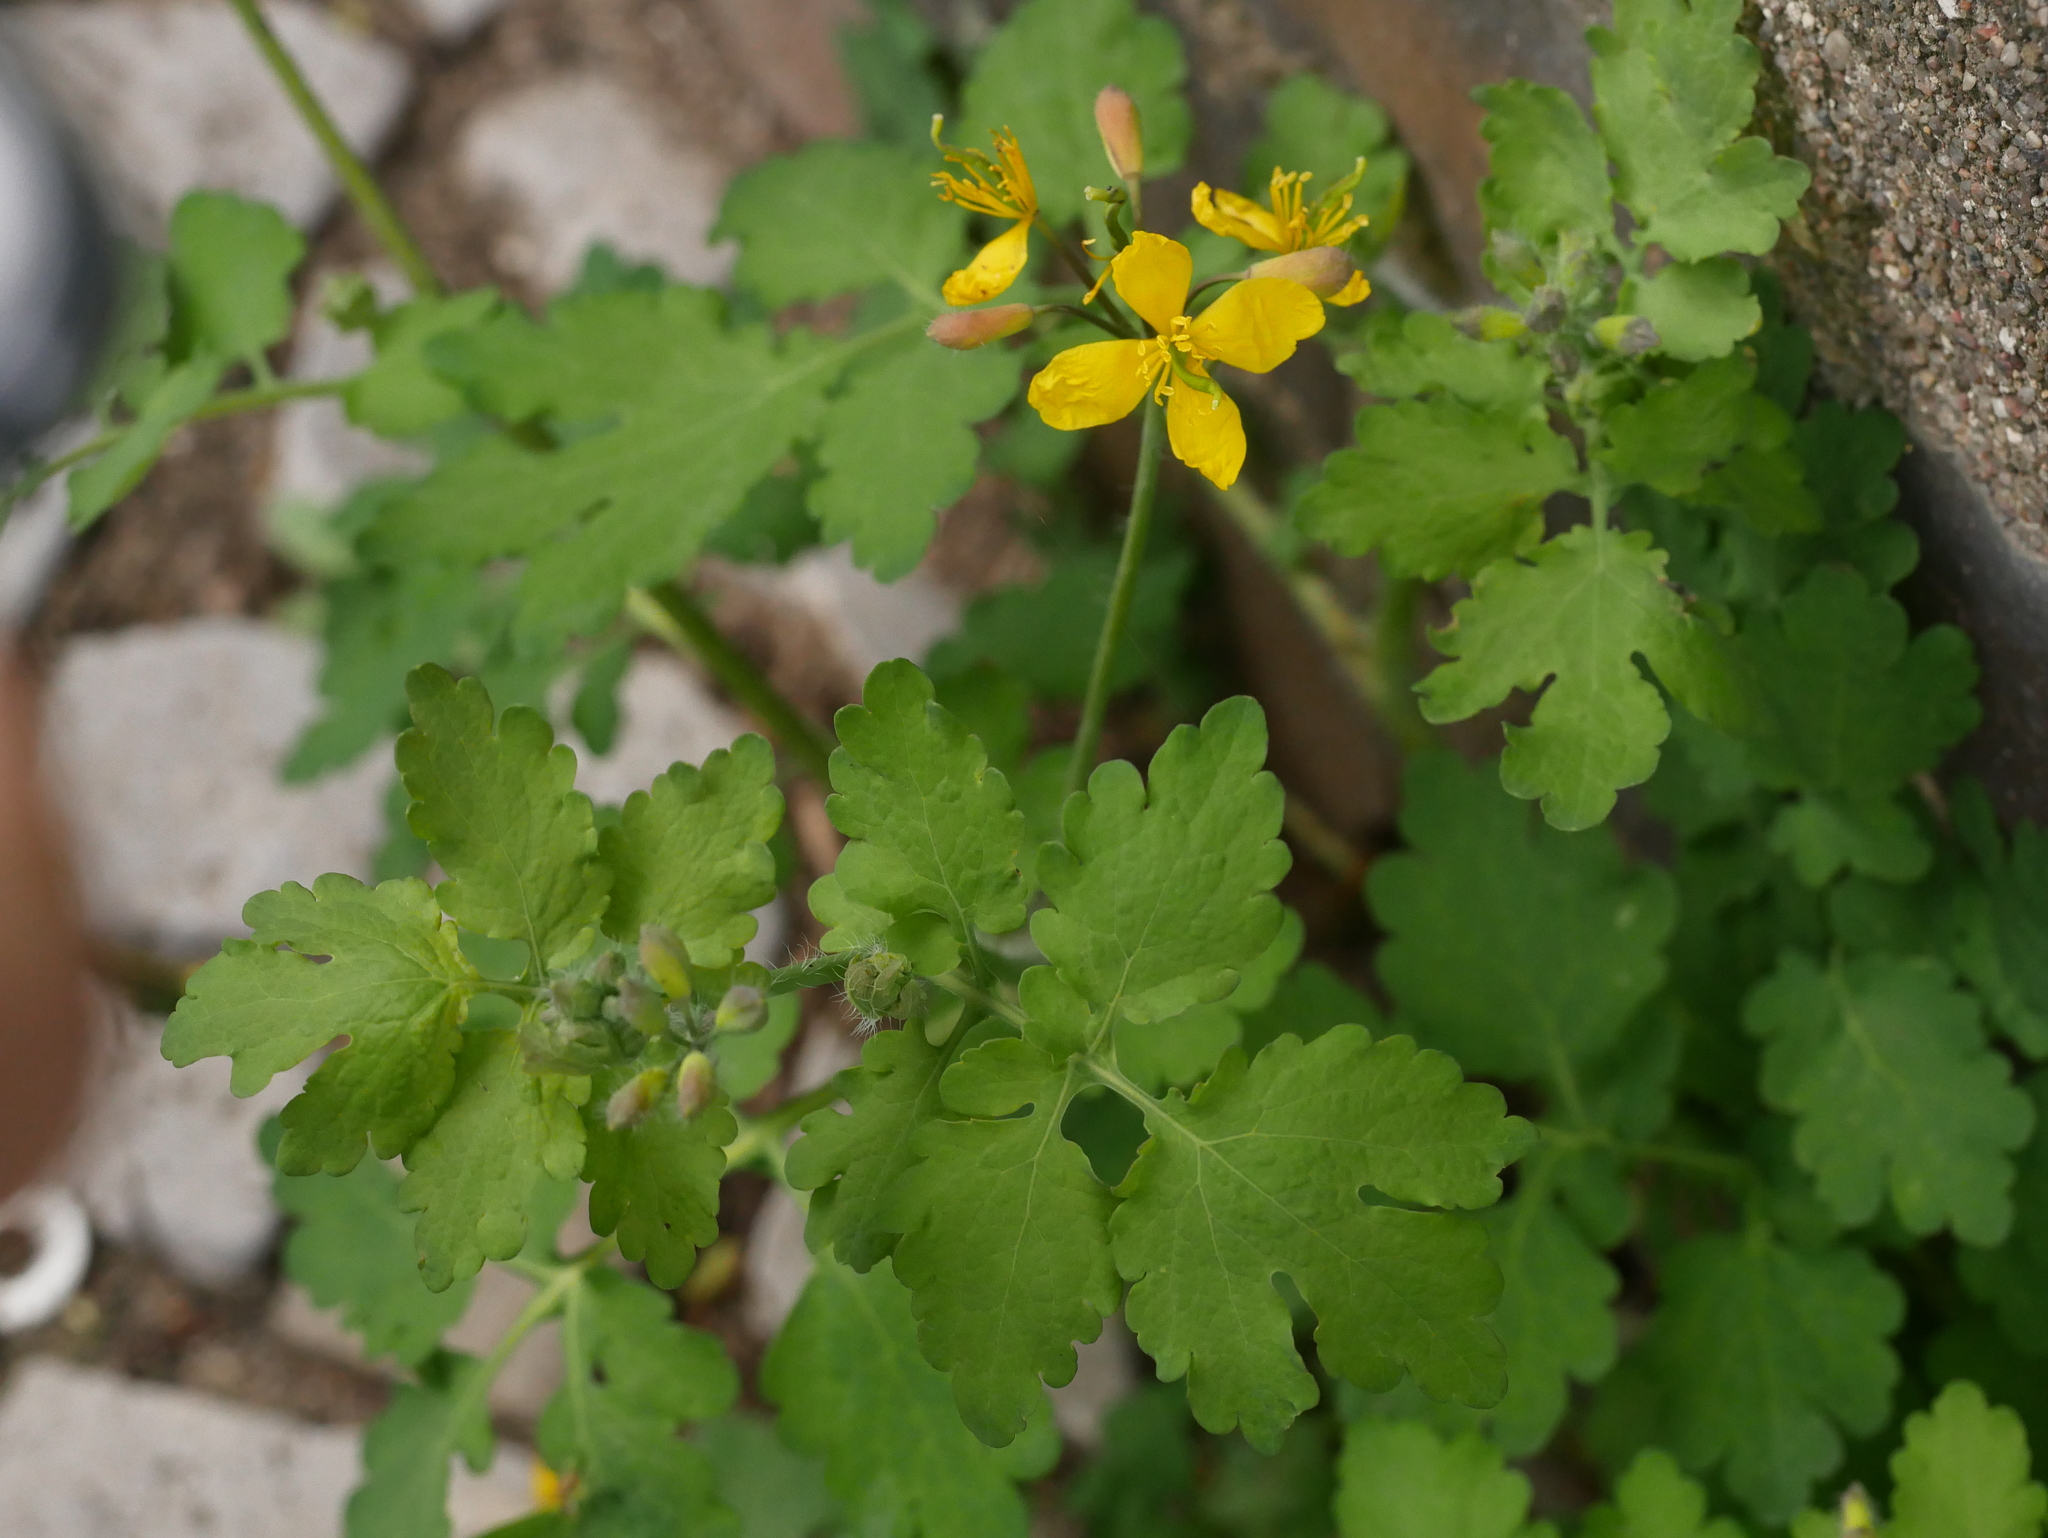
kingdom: Plantae
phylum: Tracheophyta
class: Magnoliopsida
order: Ranunculales
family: Papaveraceae
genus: Chelidonium
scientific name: Chelidonium majus
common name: Greater celandine
